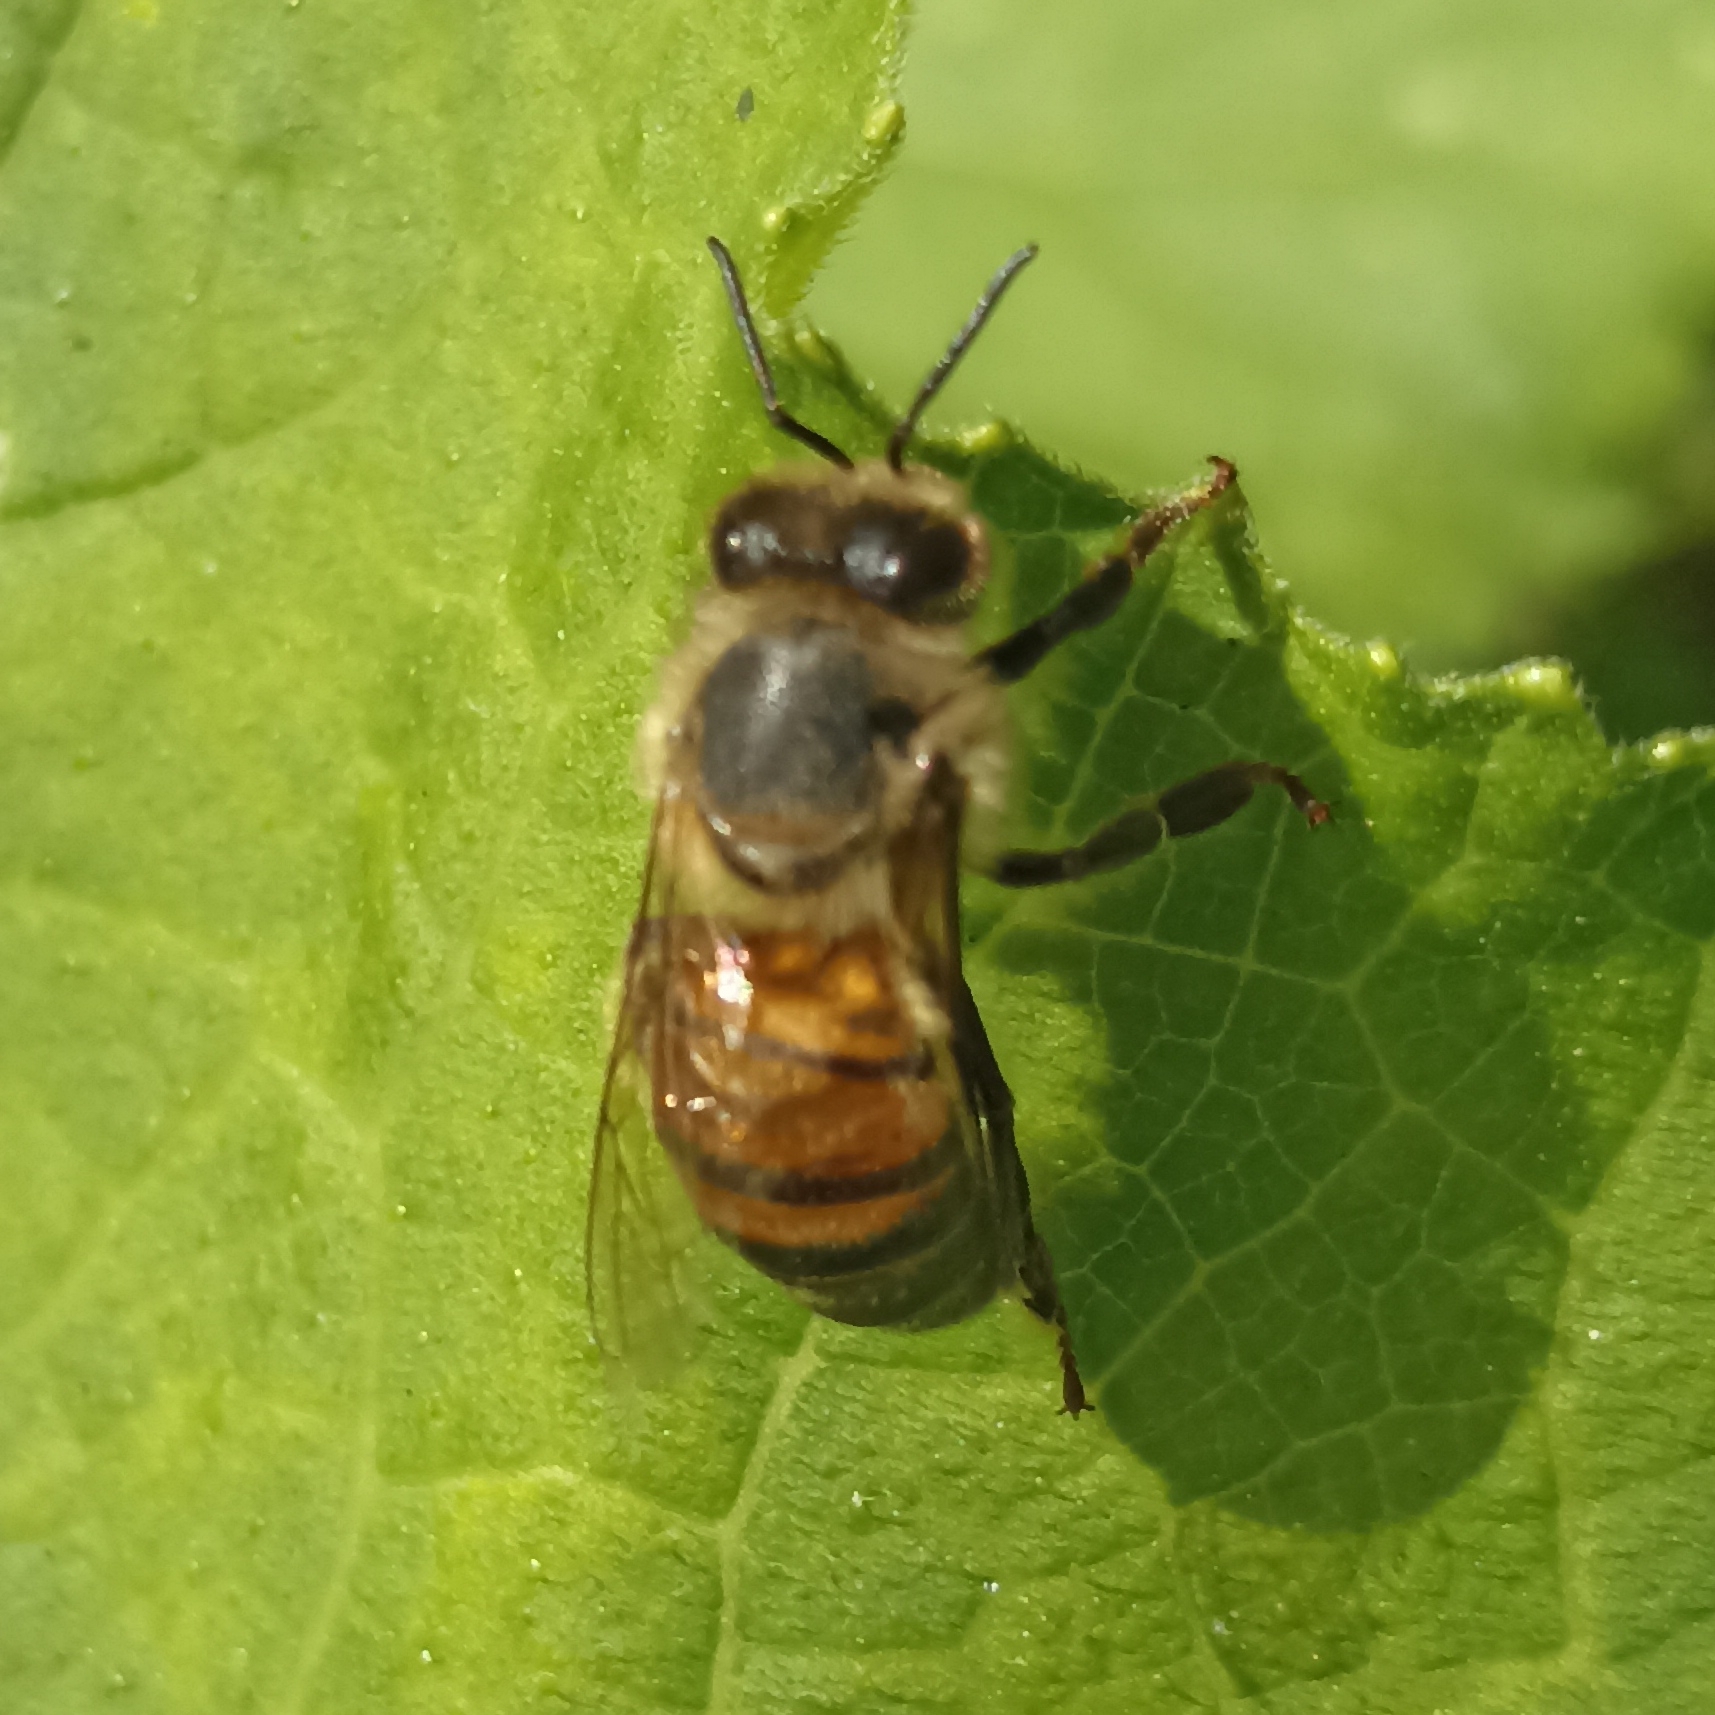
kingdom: Animalia
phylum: Arthropoda
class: Insecta
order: Hymenoptera
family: Apidae
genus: Apis
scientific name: Apis mellifera
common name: Honey bee
